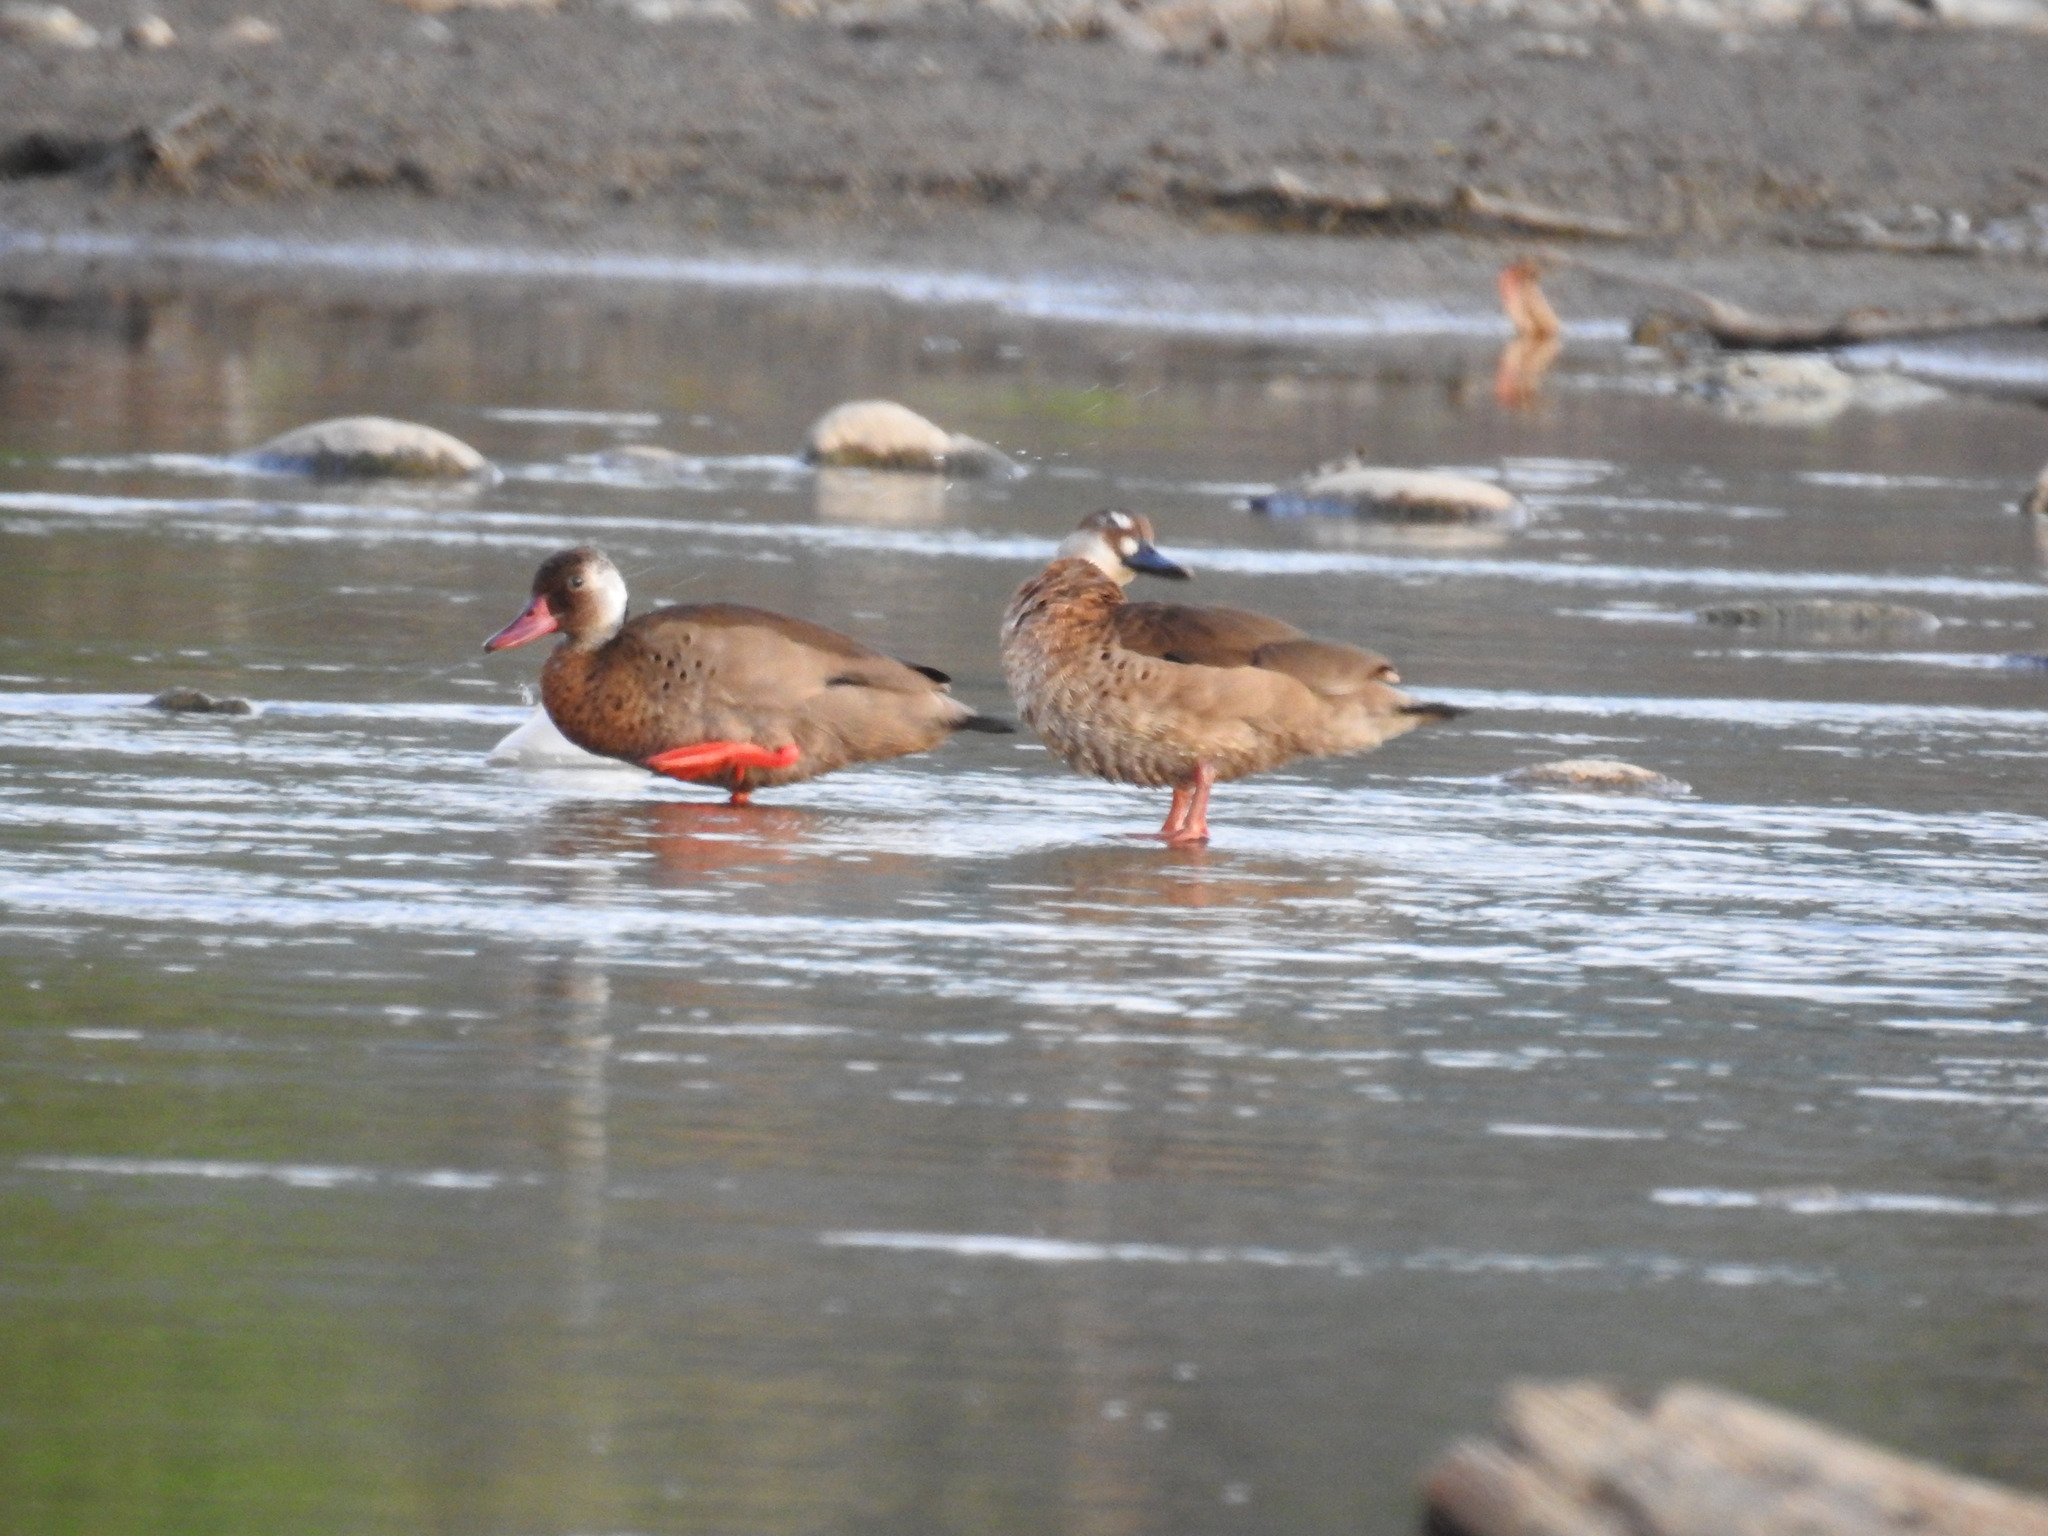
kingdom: Animalia
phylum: Chordata
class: Aves
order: Anseriformes
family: Anatidae
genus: Amazonetta
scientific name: Amazonetta brasiliensis
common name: Brazilian teal
